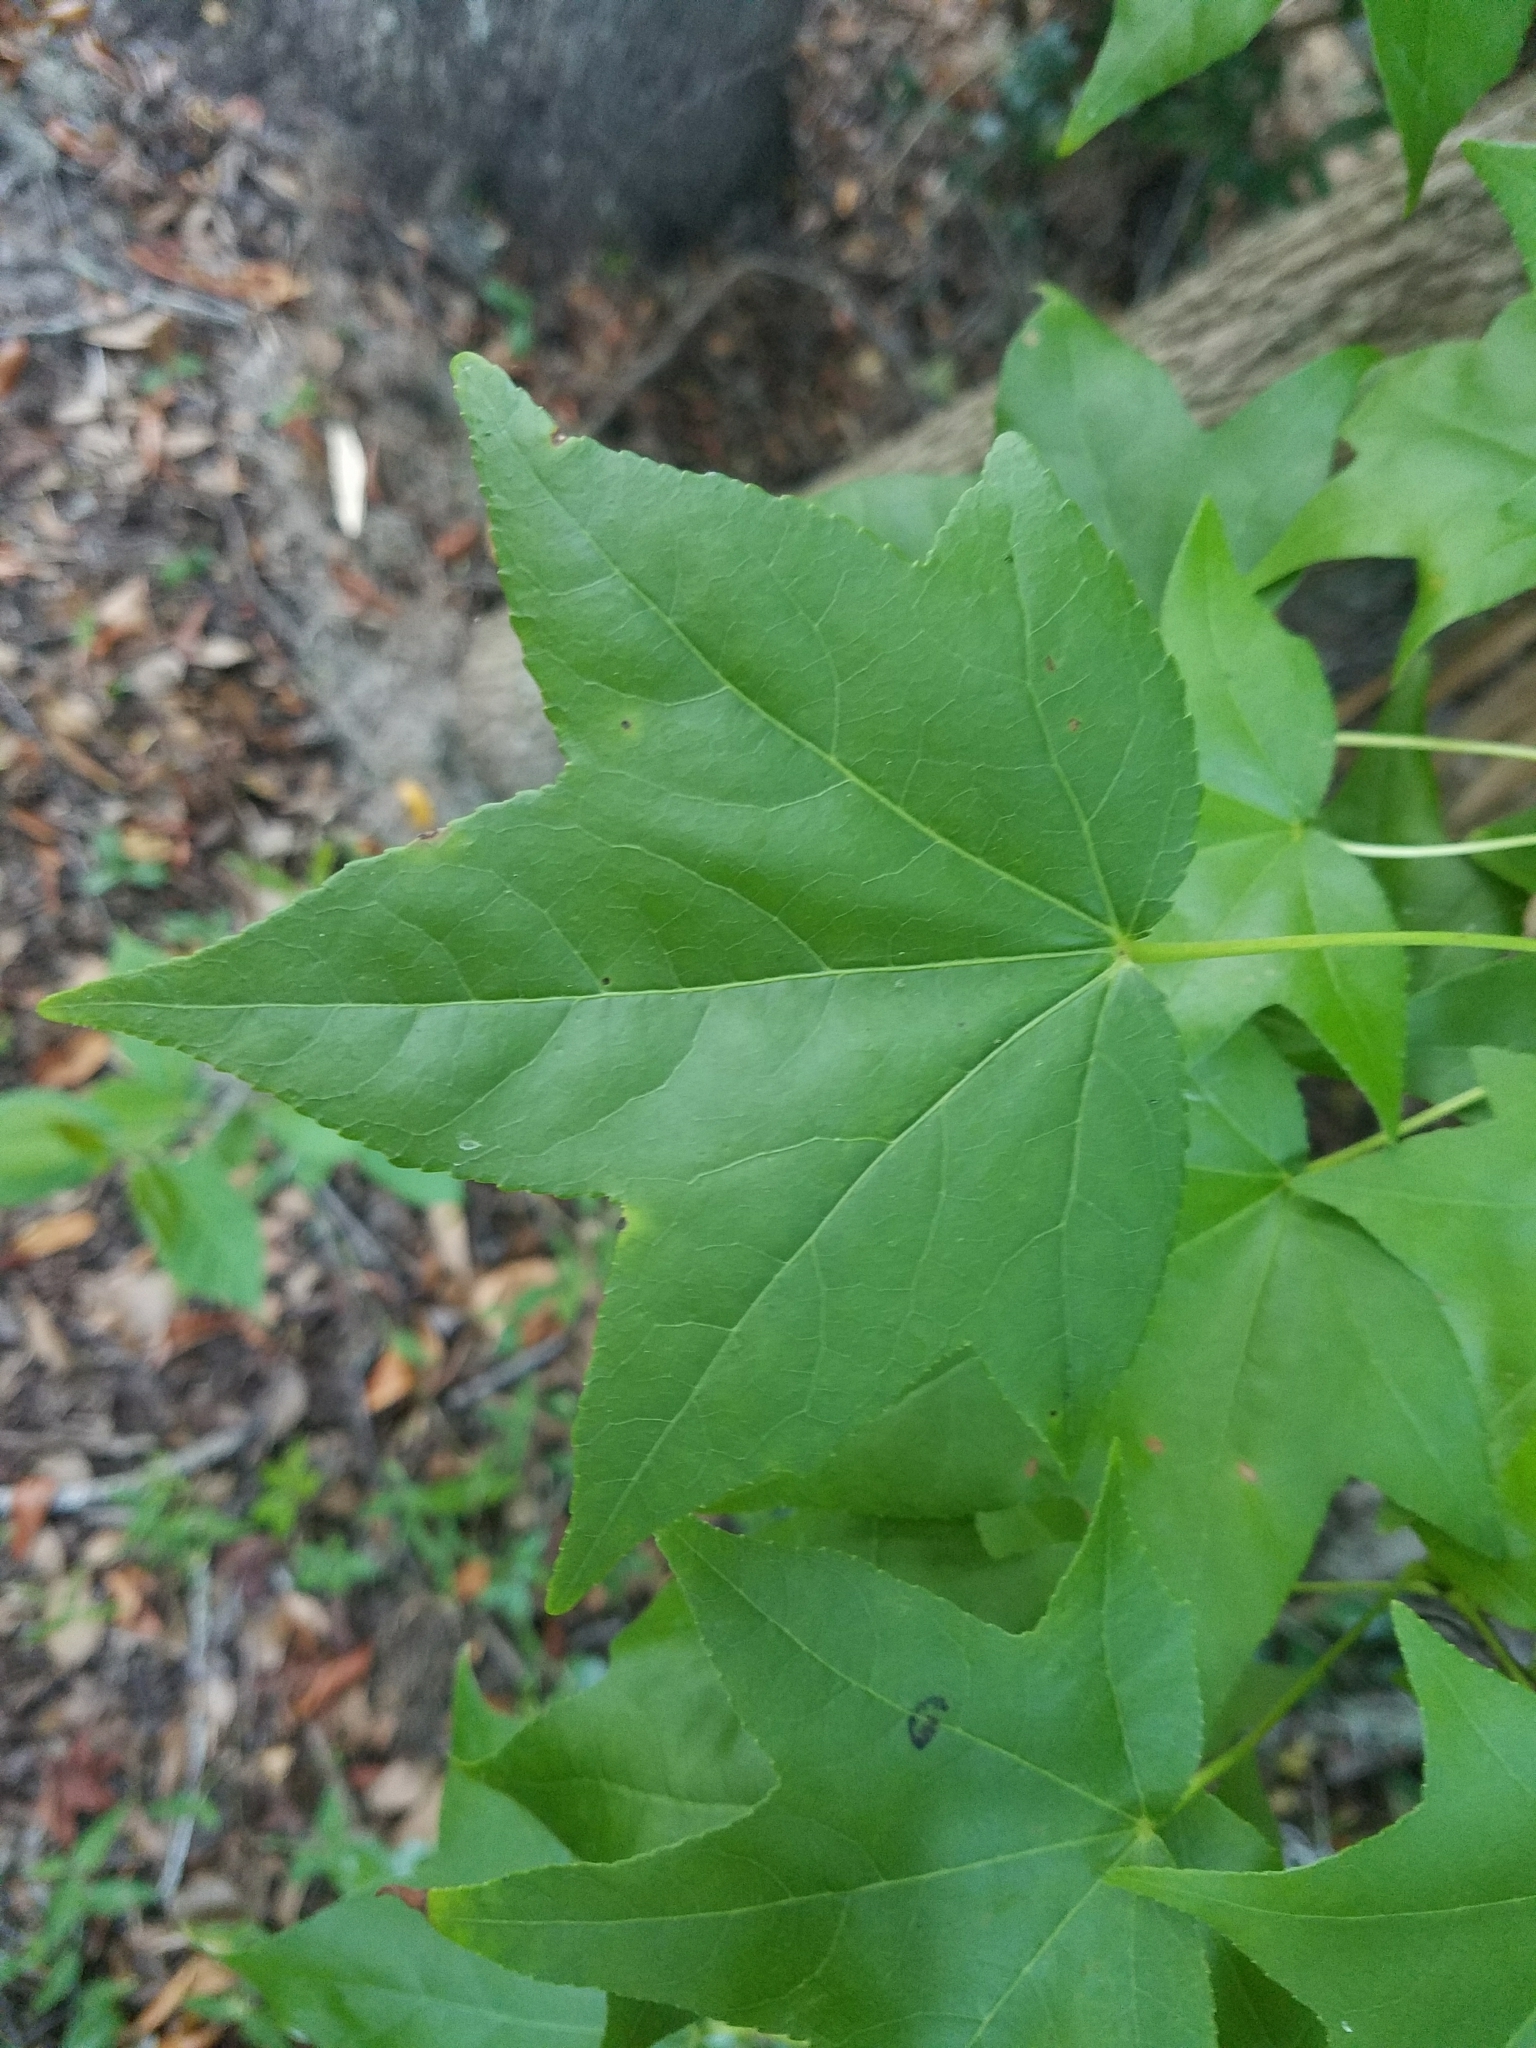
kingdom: Plantae
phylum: Tracheophyta
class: Magnoliopsida
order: Saxifragales
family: Altingiaceae
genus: Liquidambar
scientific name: Liquidambar styraciflua
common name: Sweet gum
